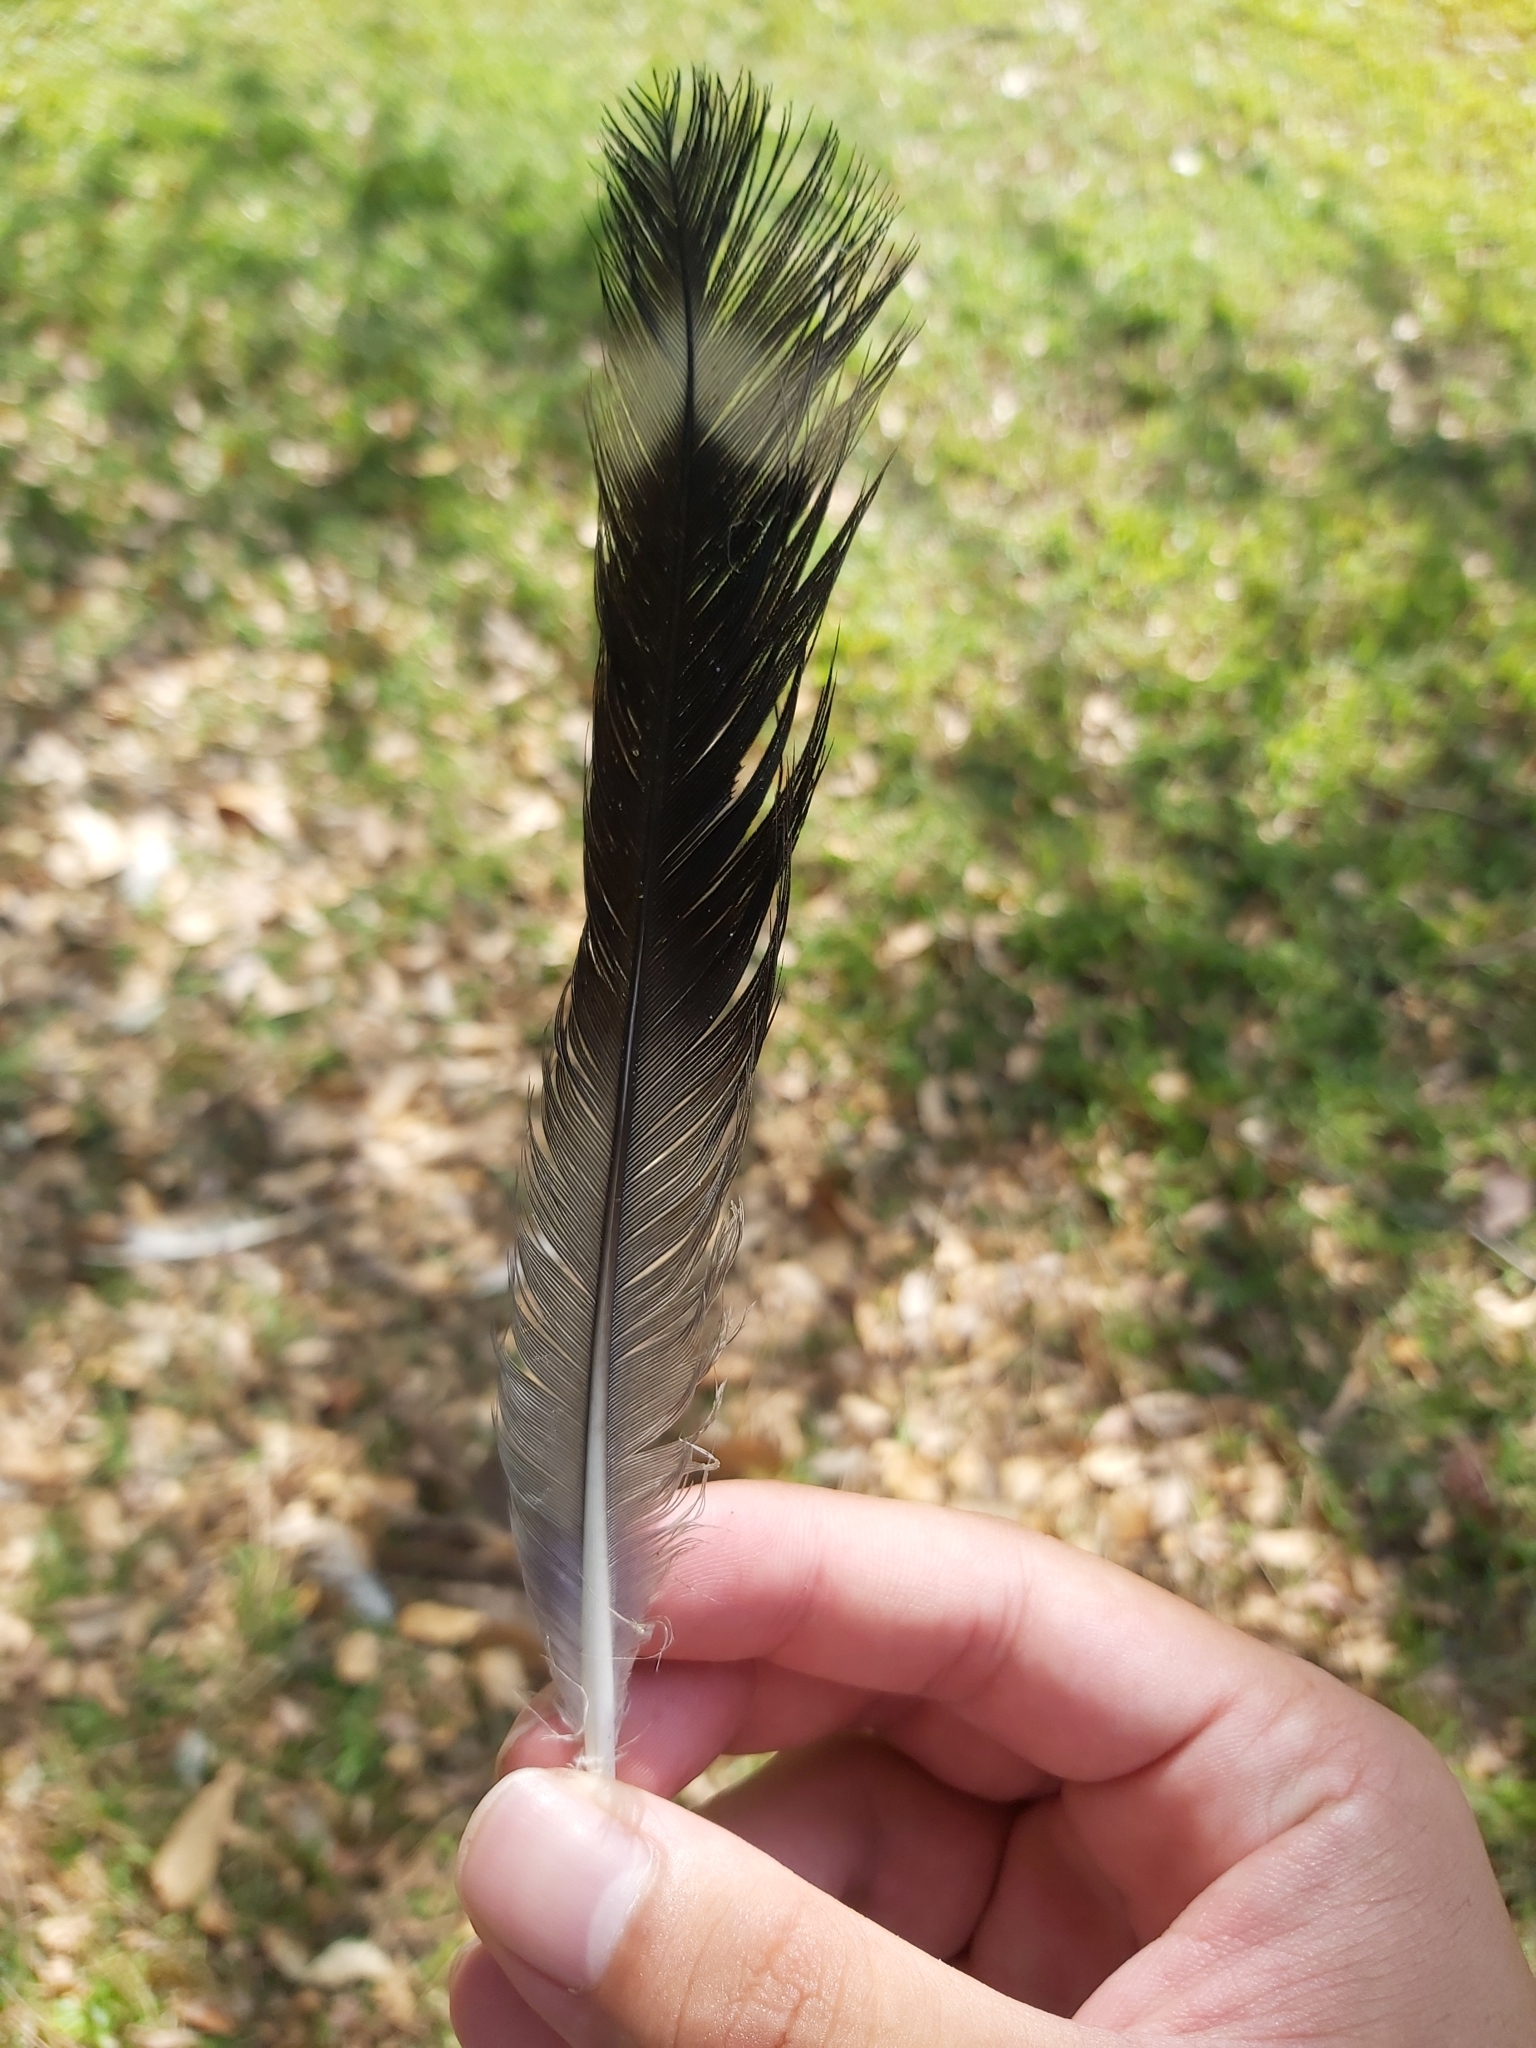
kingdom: Animalia
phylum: Chordata
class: Aves
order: Columbiformes
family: Columbidae
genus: Lopholaimus
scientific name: Lopholaimus antarcticus
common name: Topknot pigeon
